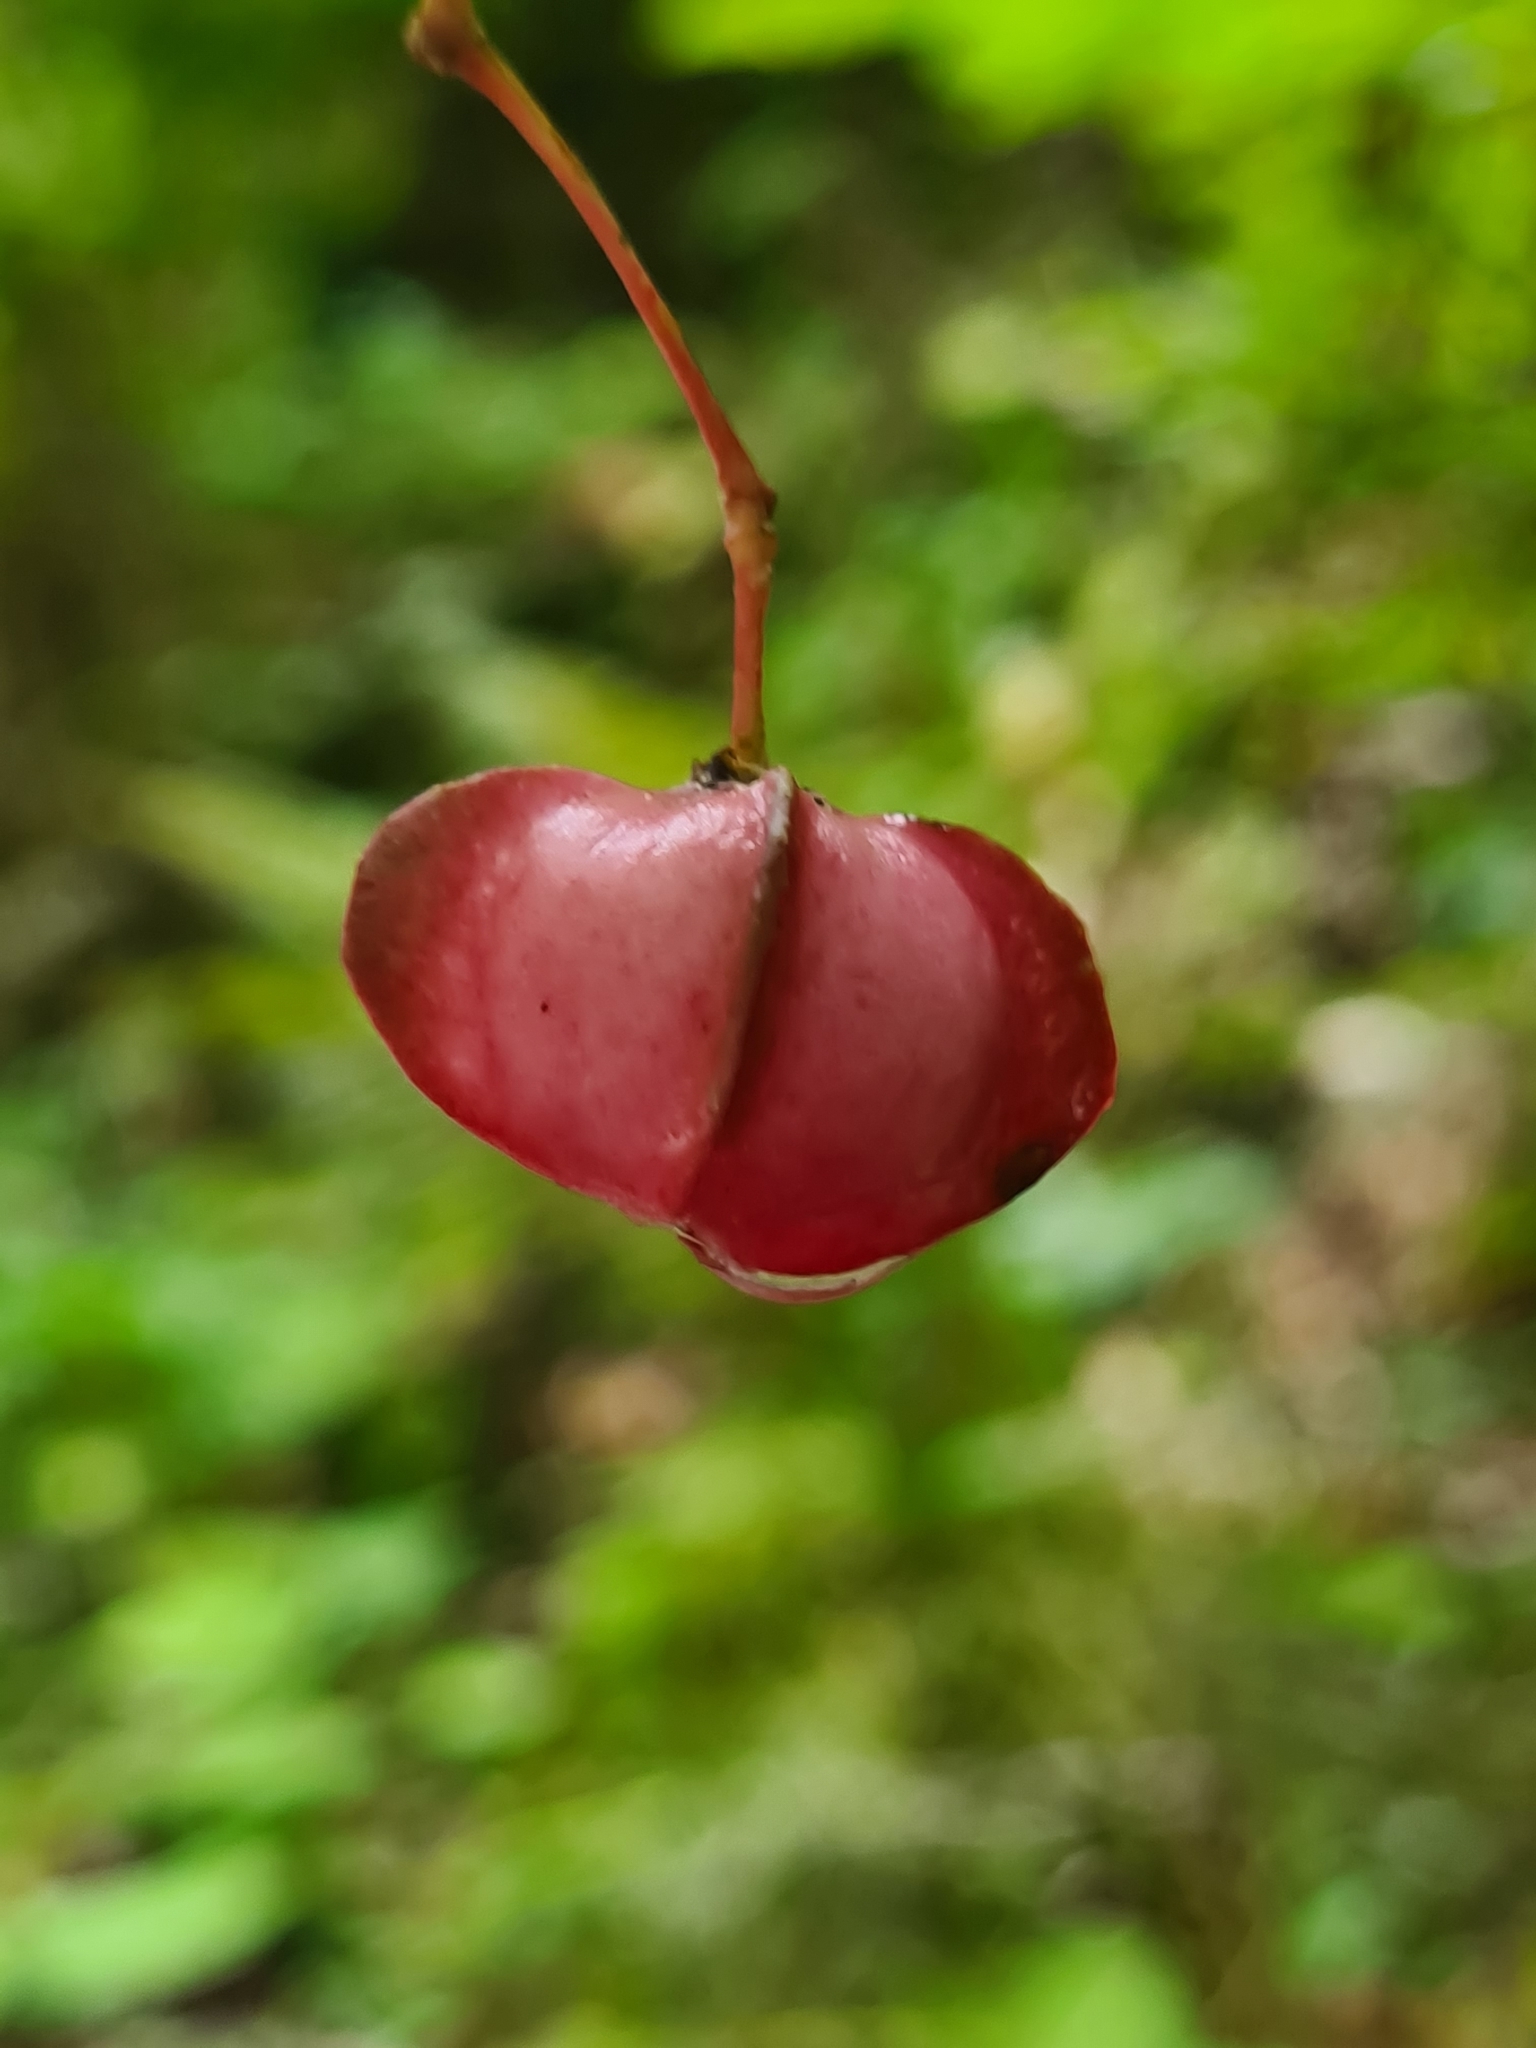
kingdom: Plantae
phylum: Tracheophyta
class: Magnoliopsida
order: Celastrales
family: Celastraceae
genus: Euonymus
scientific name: Euonymus latifolius
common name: Large-leaved spindle
